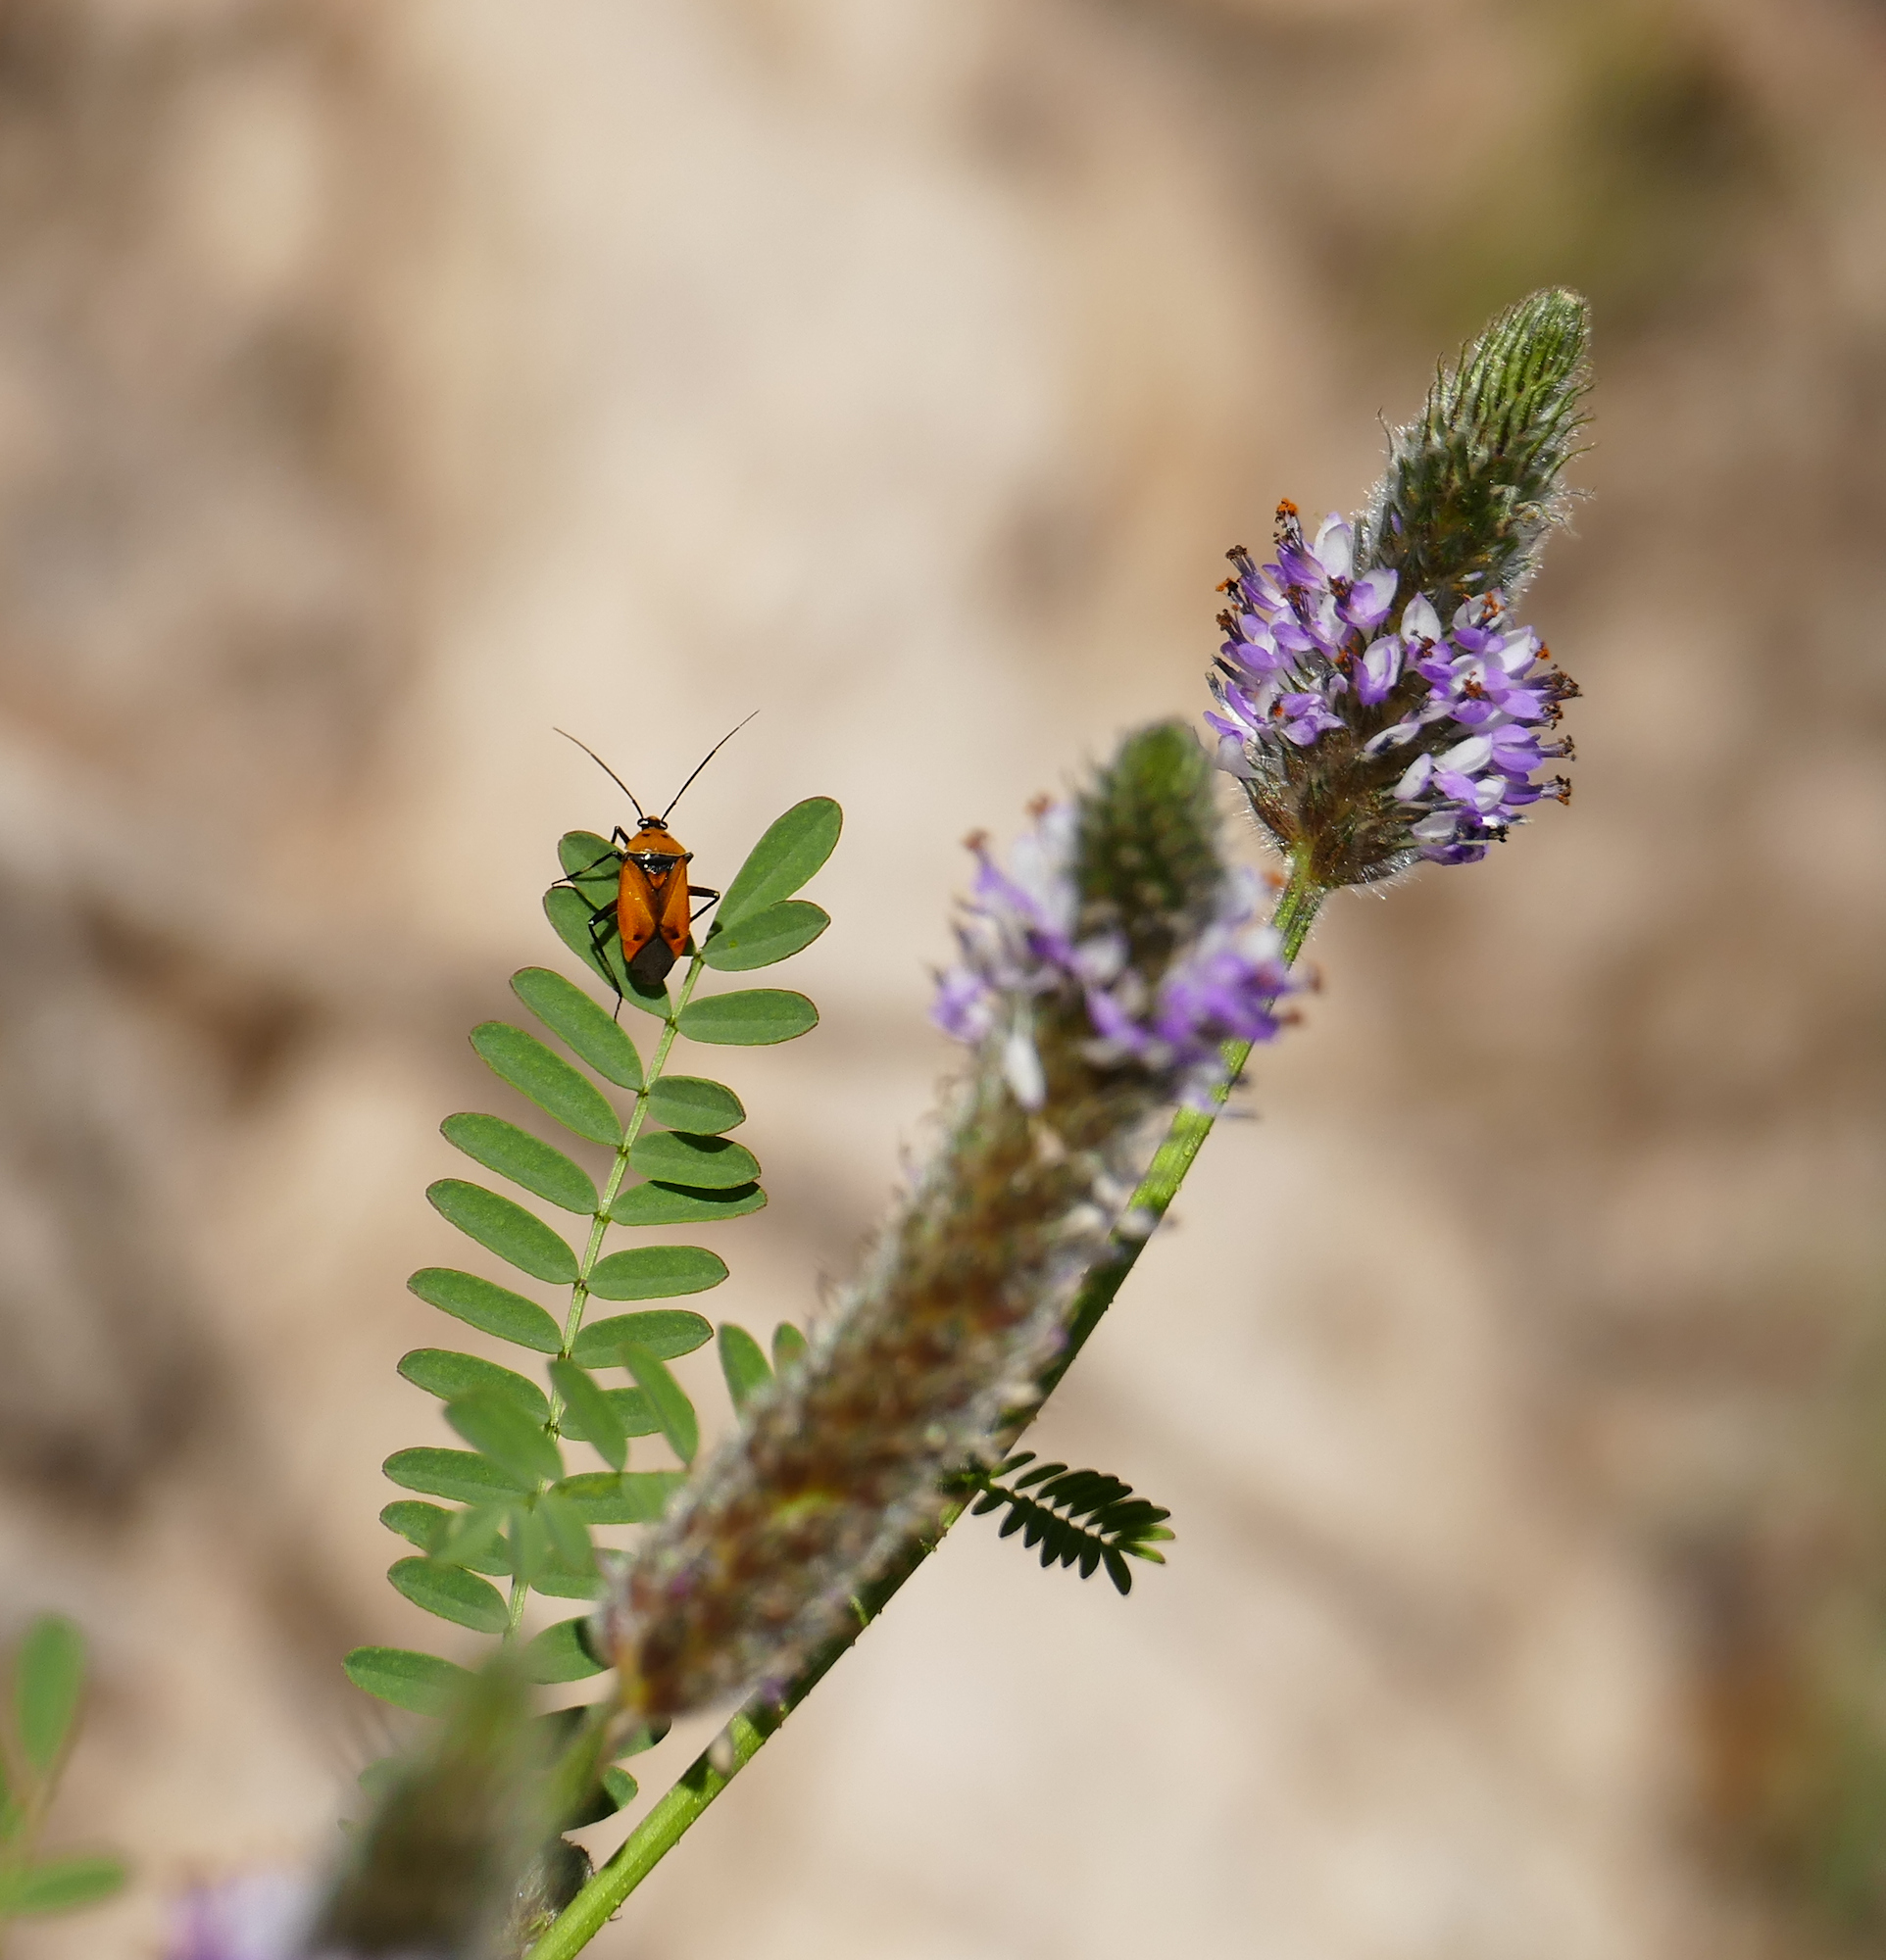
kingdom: Plantae
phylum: Tracheophyta
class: Magnoliopsida
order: Fabales
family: Fabaceae
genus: Dalea
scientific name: Dalea leporina
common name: Foxtail dalea
